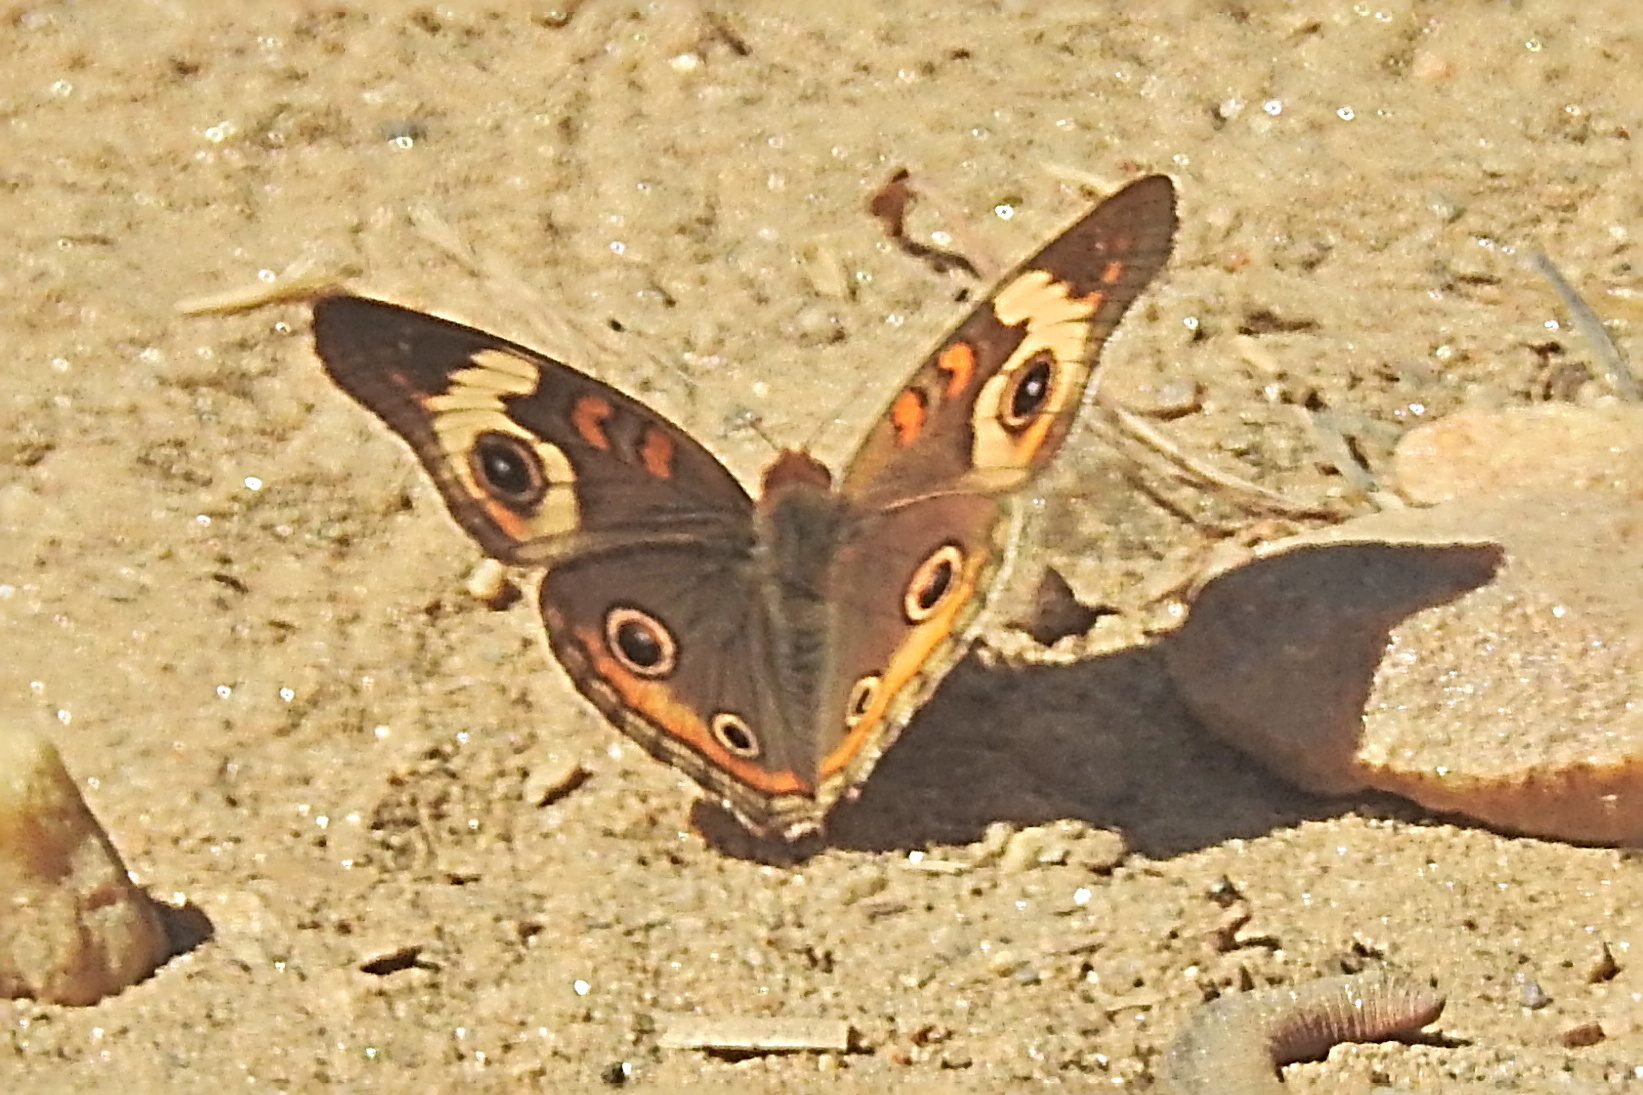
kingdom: Animalia
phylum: Arthropoda
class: Insecta
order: Lepidoptera
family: Nymphalidae
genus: Junonia
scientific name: Junonia coenia
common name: Common buckeye
